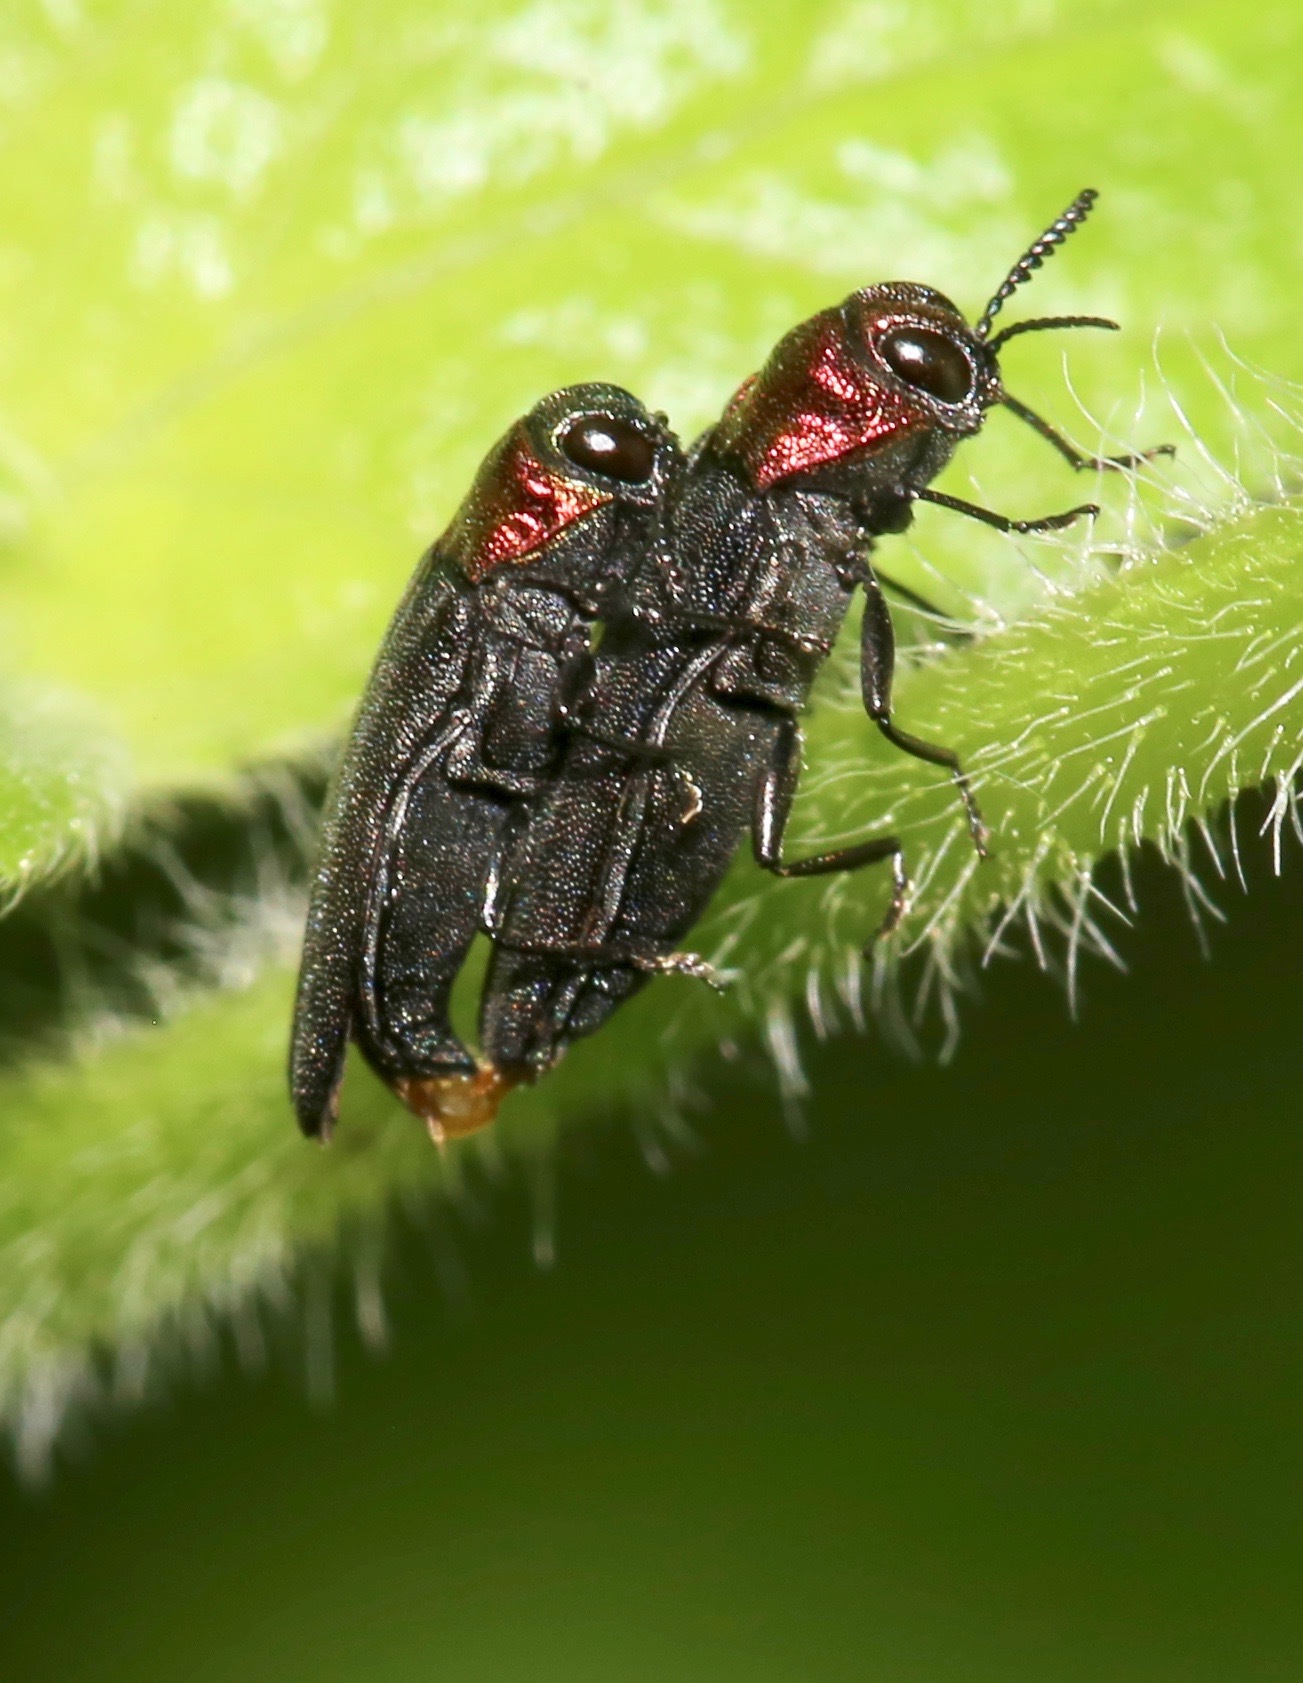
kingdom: Animalia
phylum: Arthropoda
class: Insecta
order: Coleoptera
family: Buprestidae
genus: Agrilus
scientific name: Agrilus heterothecae
